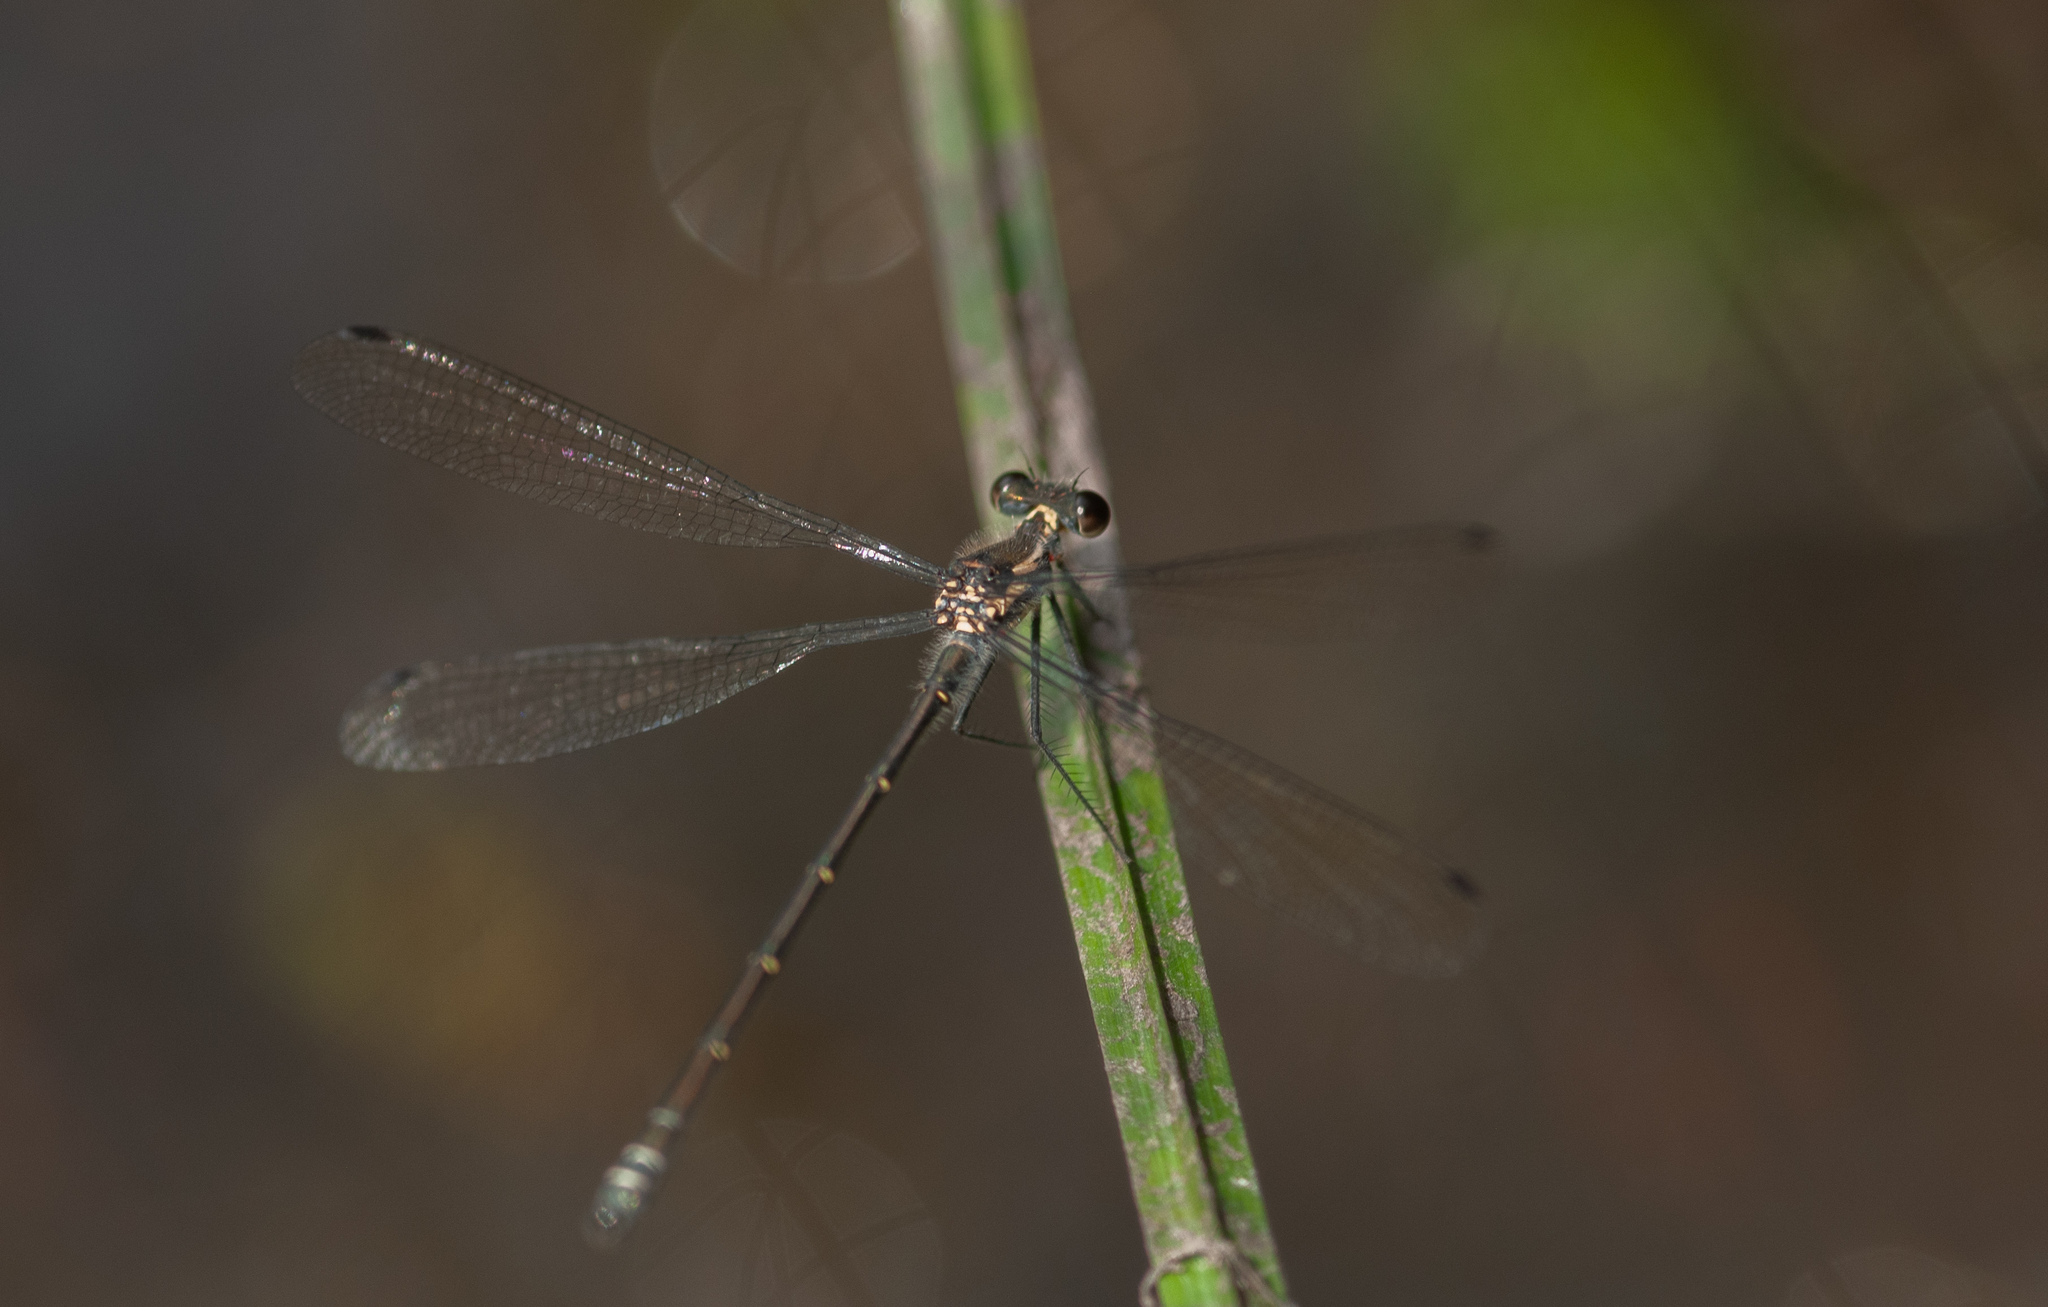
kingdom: Animalia
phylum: Arthropoda
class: Insecta
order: Odonata
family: Argiolestidae
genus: Austroargiolestes
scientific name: Austroargiolestes icteromelas
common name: Common flatwing
